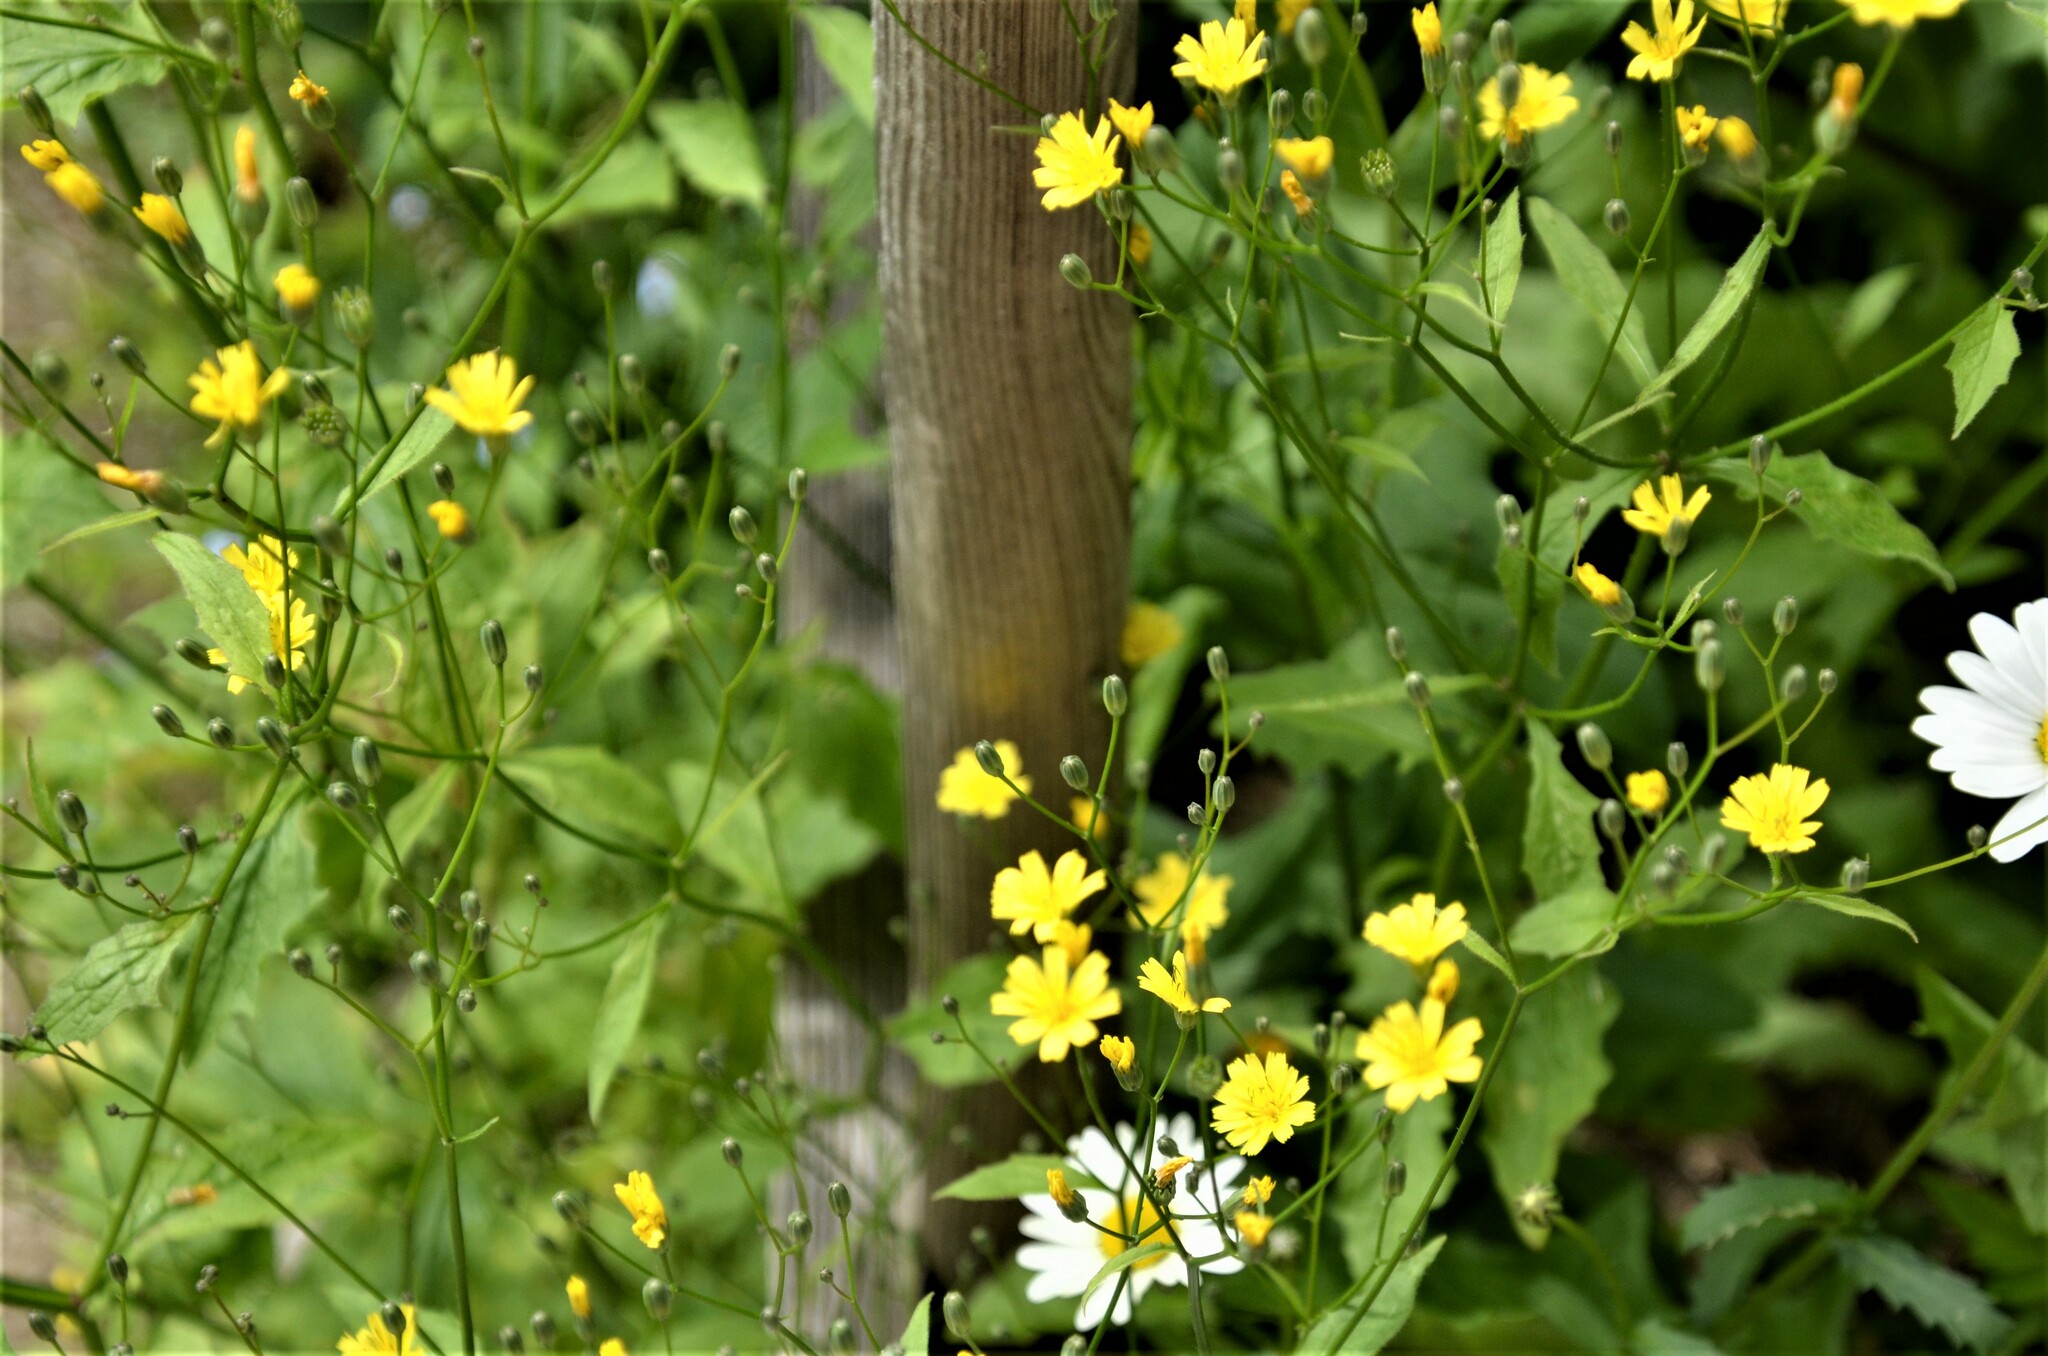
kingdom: Plantae
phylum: Tracheophyta
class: Magnoliopsida
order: Asterales
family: Asteraceae
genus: Lapsana
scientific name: Lapsana communis
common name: Nipplewort
